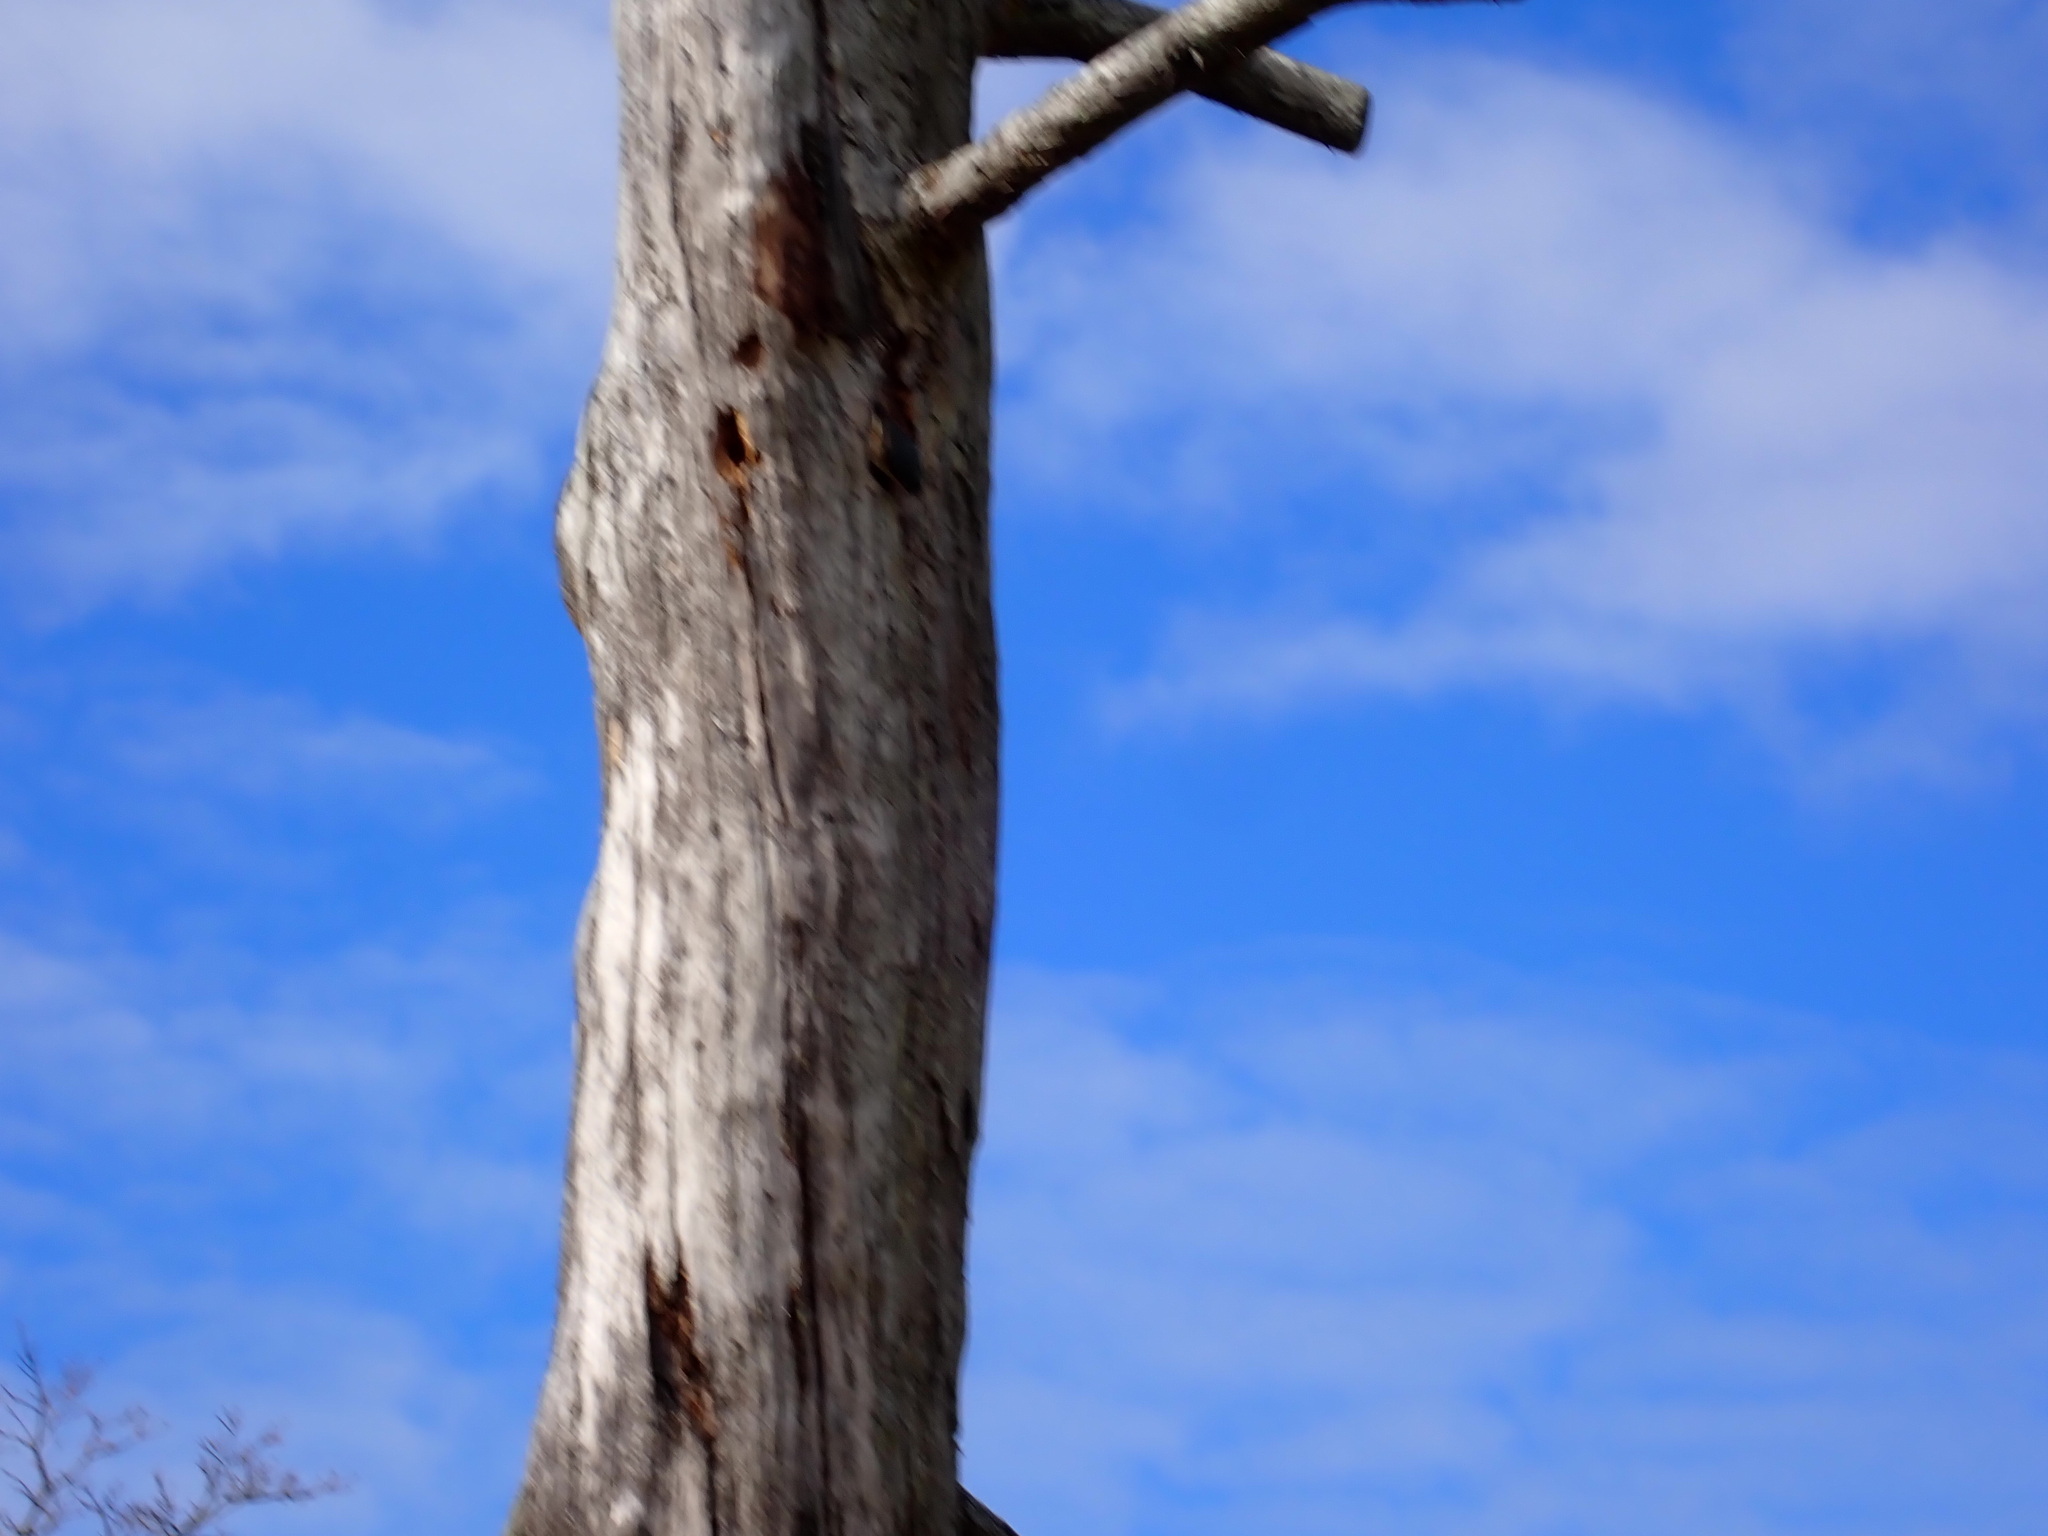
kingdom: Animalia
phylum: Chordata
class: Aves
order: Passeriformes
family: Sittidae
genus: Sitta
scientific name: Sitta canadensis
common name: Red-breasted nuthatch
